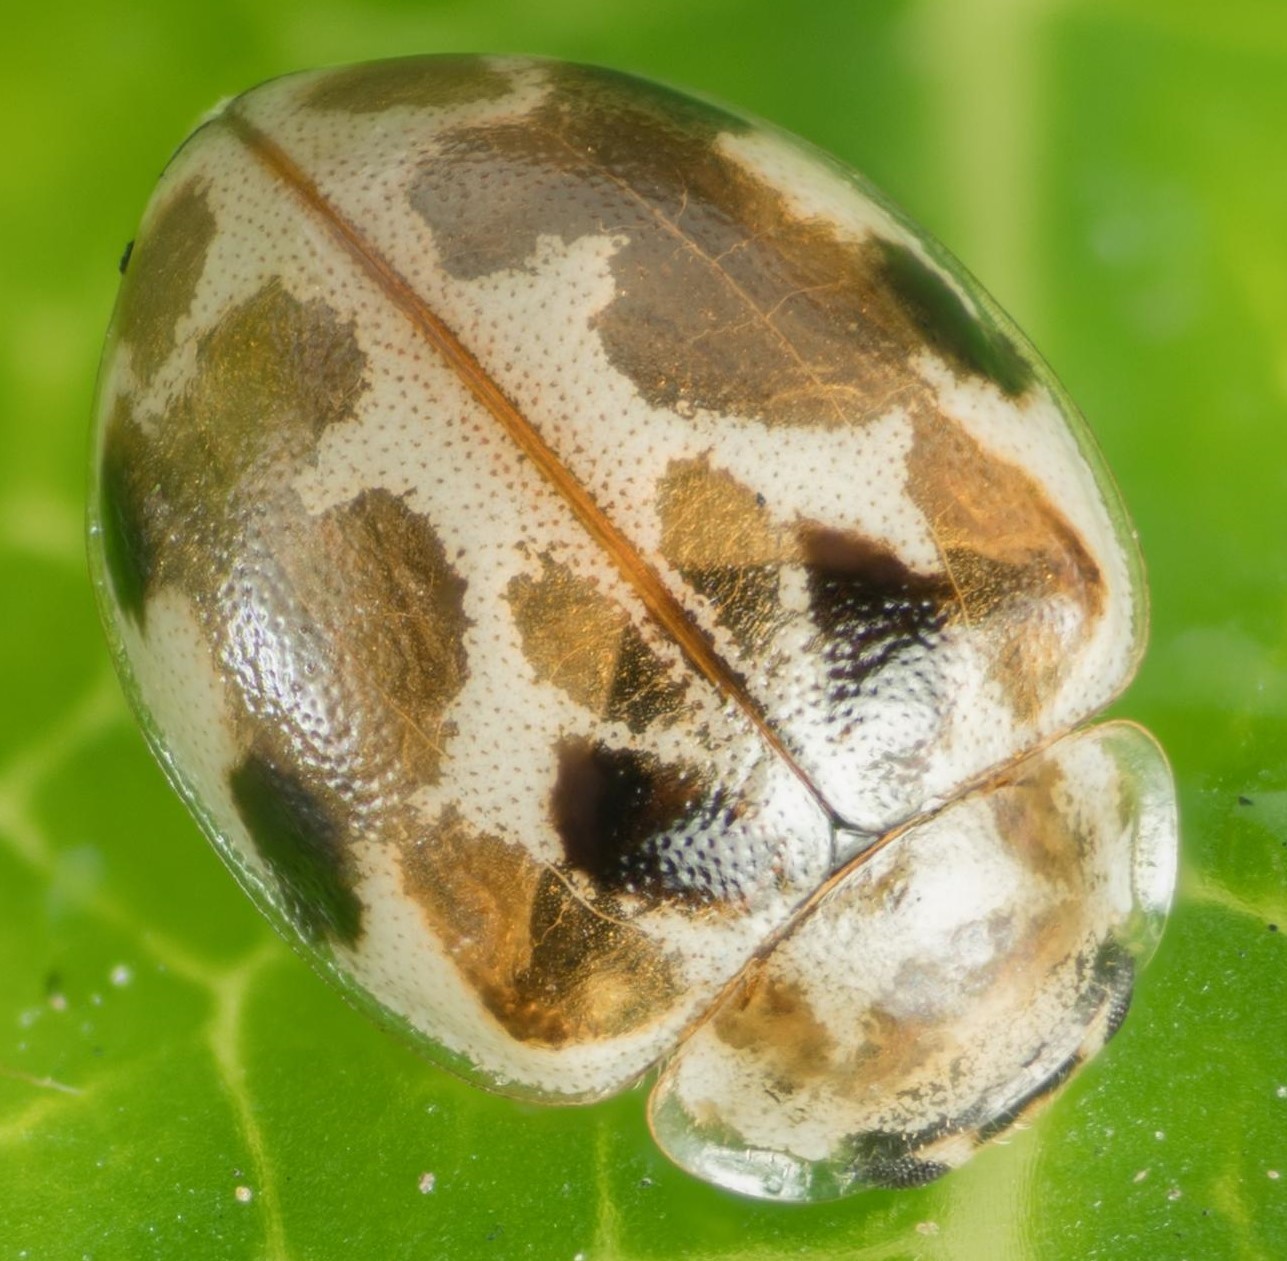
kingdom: Animalia
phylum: Arthropoda
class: Insecta
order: Coleoptera
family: Coccinellidae
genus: Psyllobora
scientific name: Psyllobora vigintimaculata
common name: Ladybird beetle
